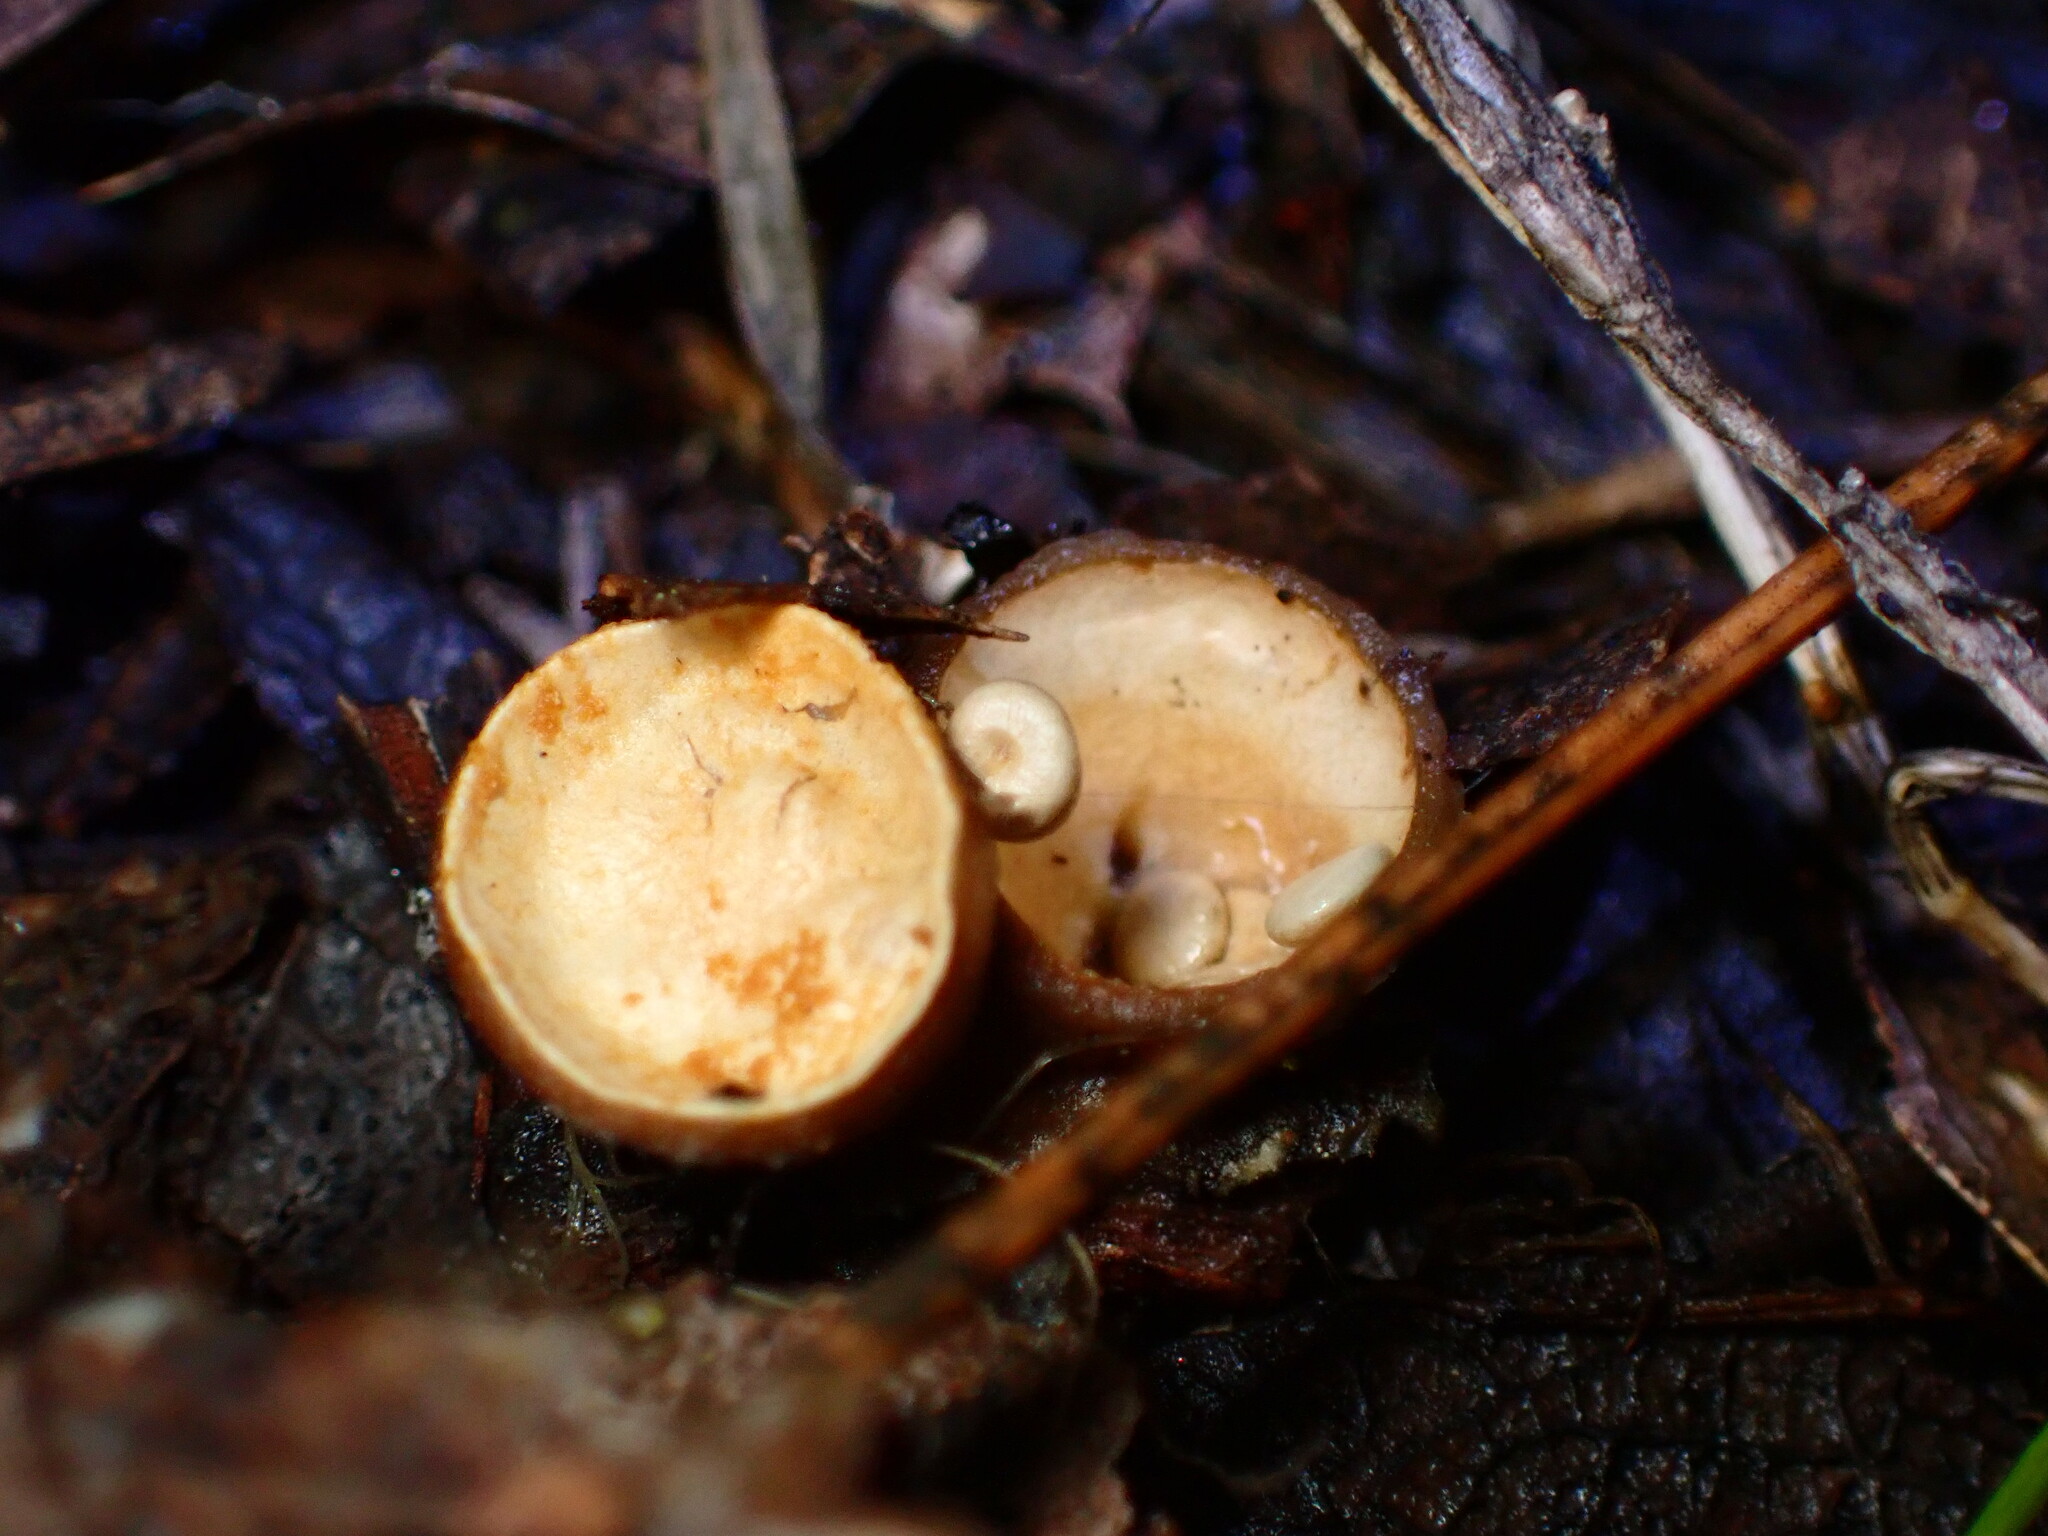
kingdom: Fungi
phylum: Basidiomycota
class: Agaricomycetes
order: Agaricales
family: Nidulariaceae
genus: Crucibulum
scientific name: Crucibulum laeve
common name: Common bird's nest
